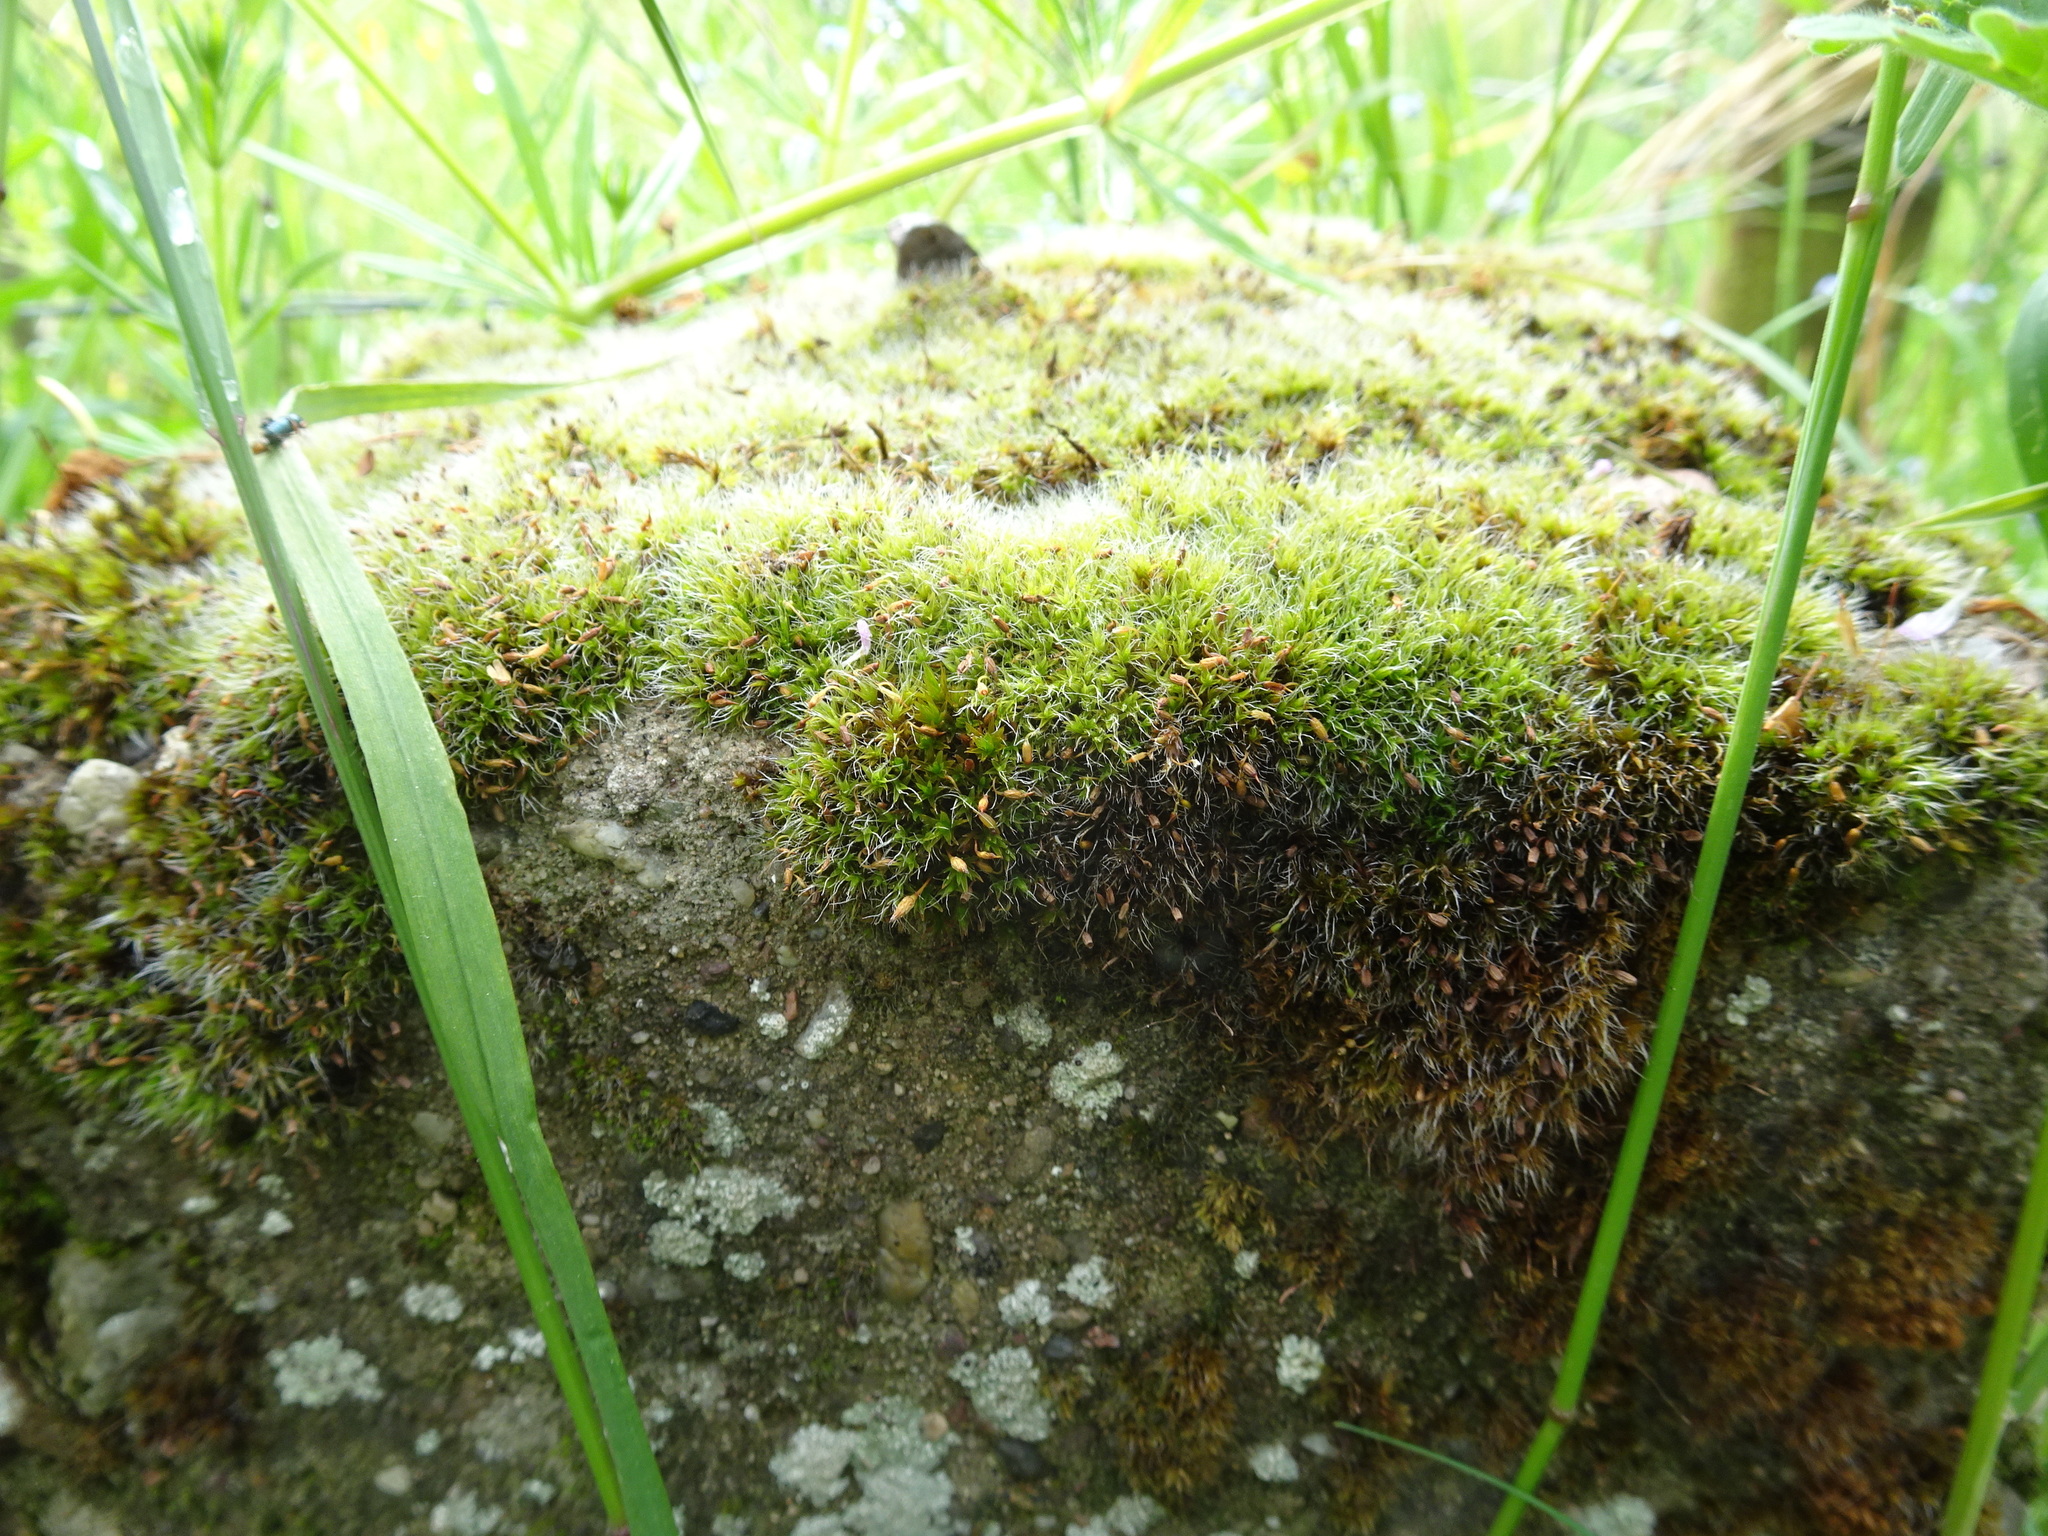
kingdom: Plantae
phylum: Bryophyta
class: Bryopsida
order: Grimmiales
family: Grimmiaceae
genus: Grimmia
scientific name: Grimmia pulvinata
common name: Grey-cushioned grimmia
